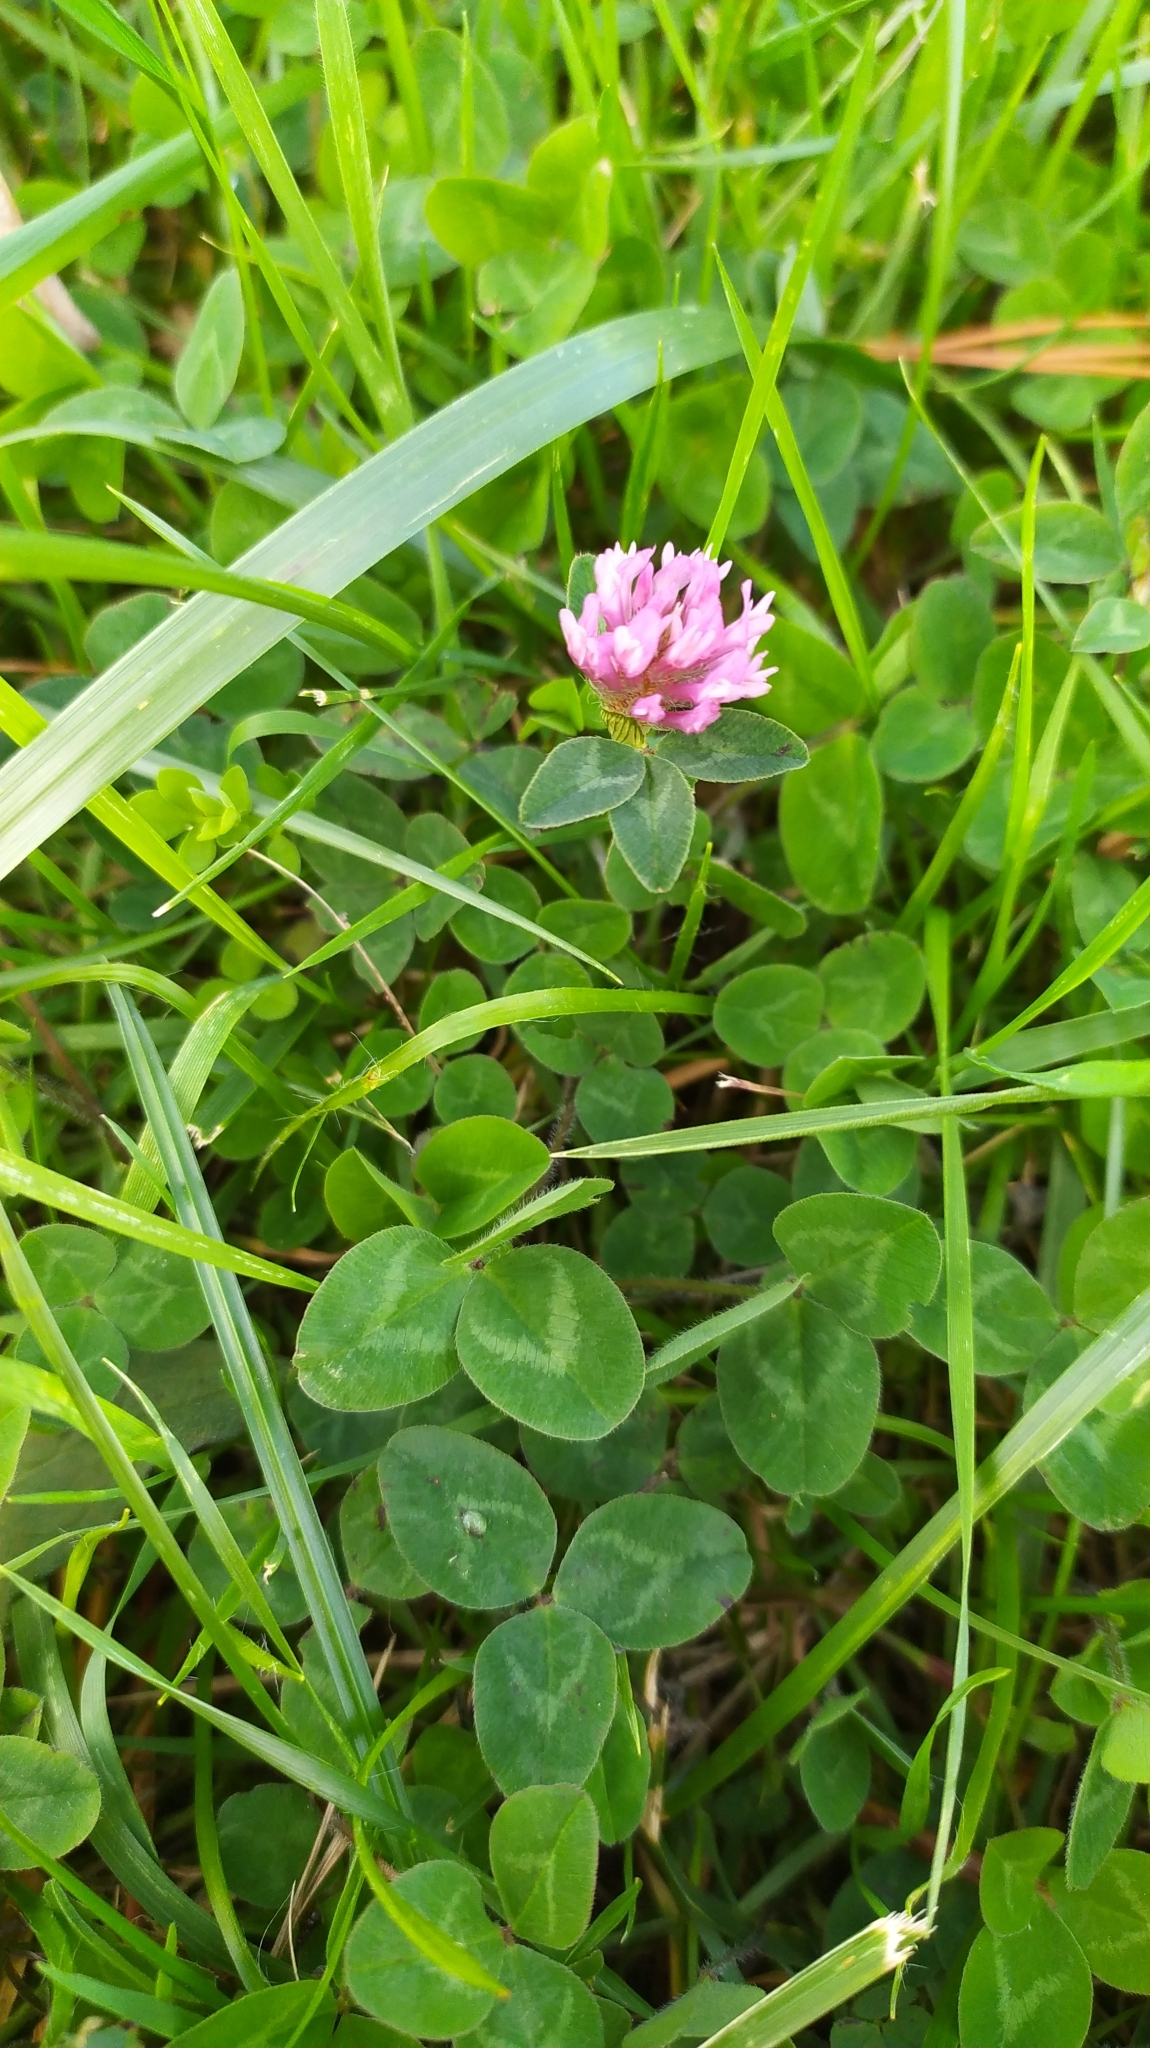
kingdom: Plantae
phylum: Tracheophyta
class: Magnoliopsida
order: Fabales
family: Fabaceae
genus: Trifolium
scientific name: Trifolium pratense
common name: Red clover
